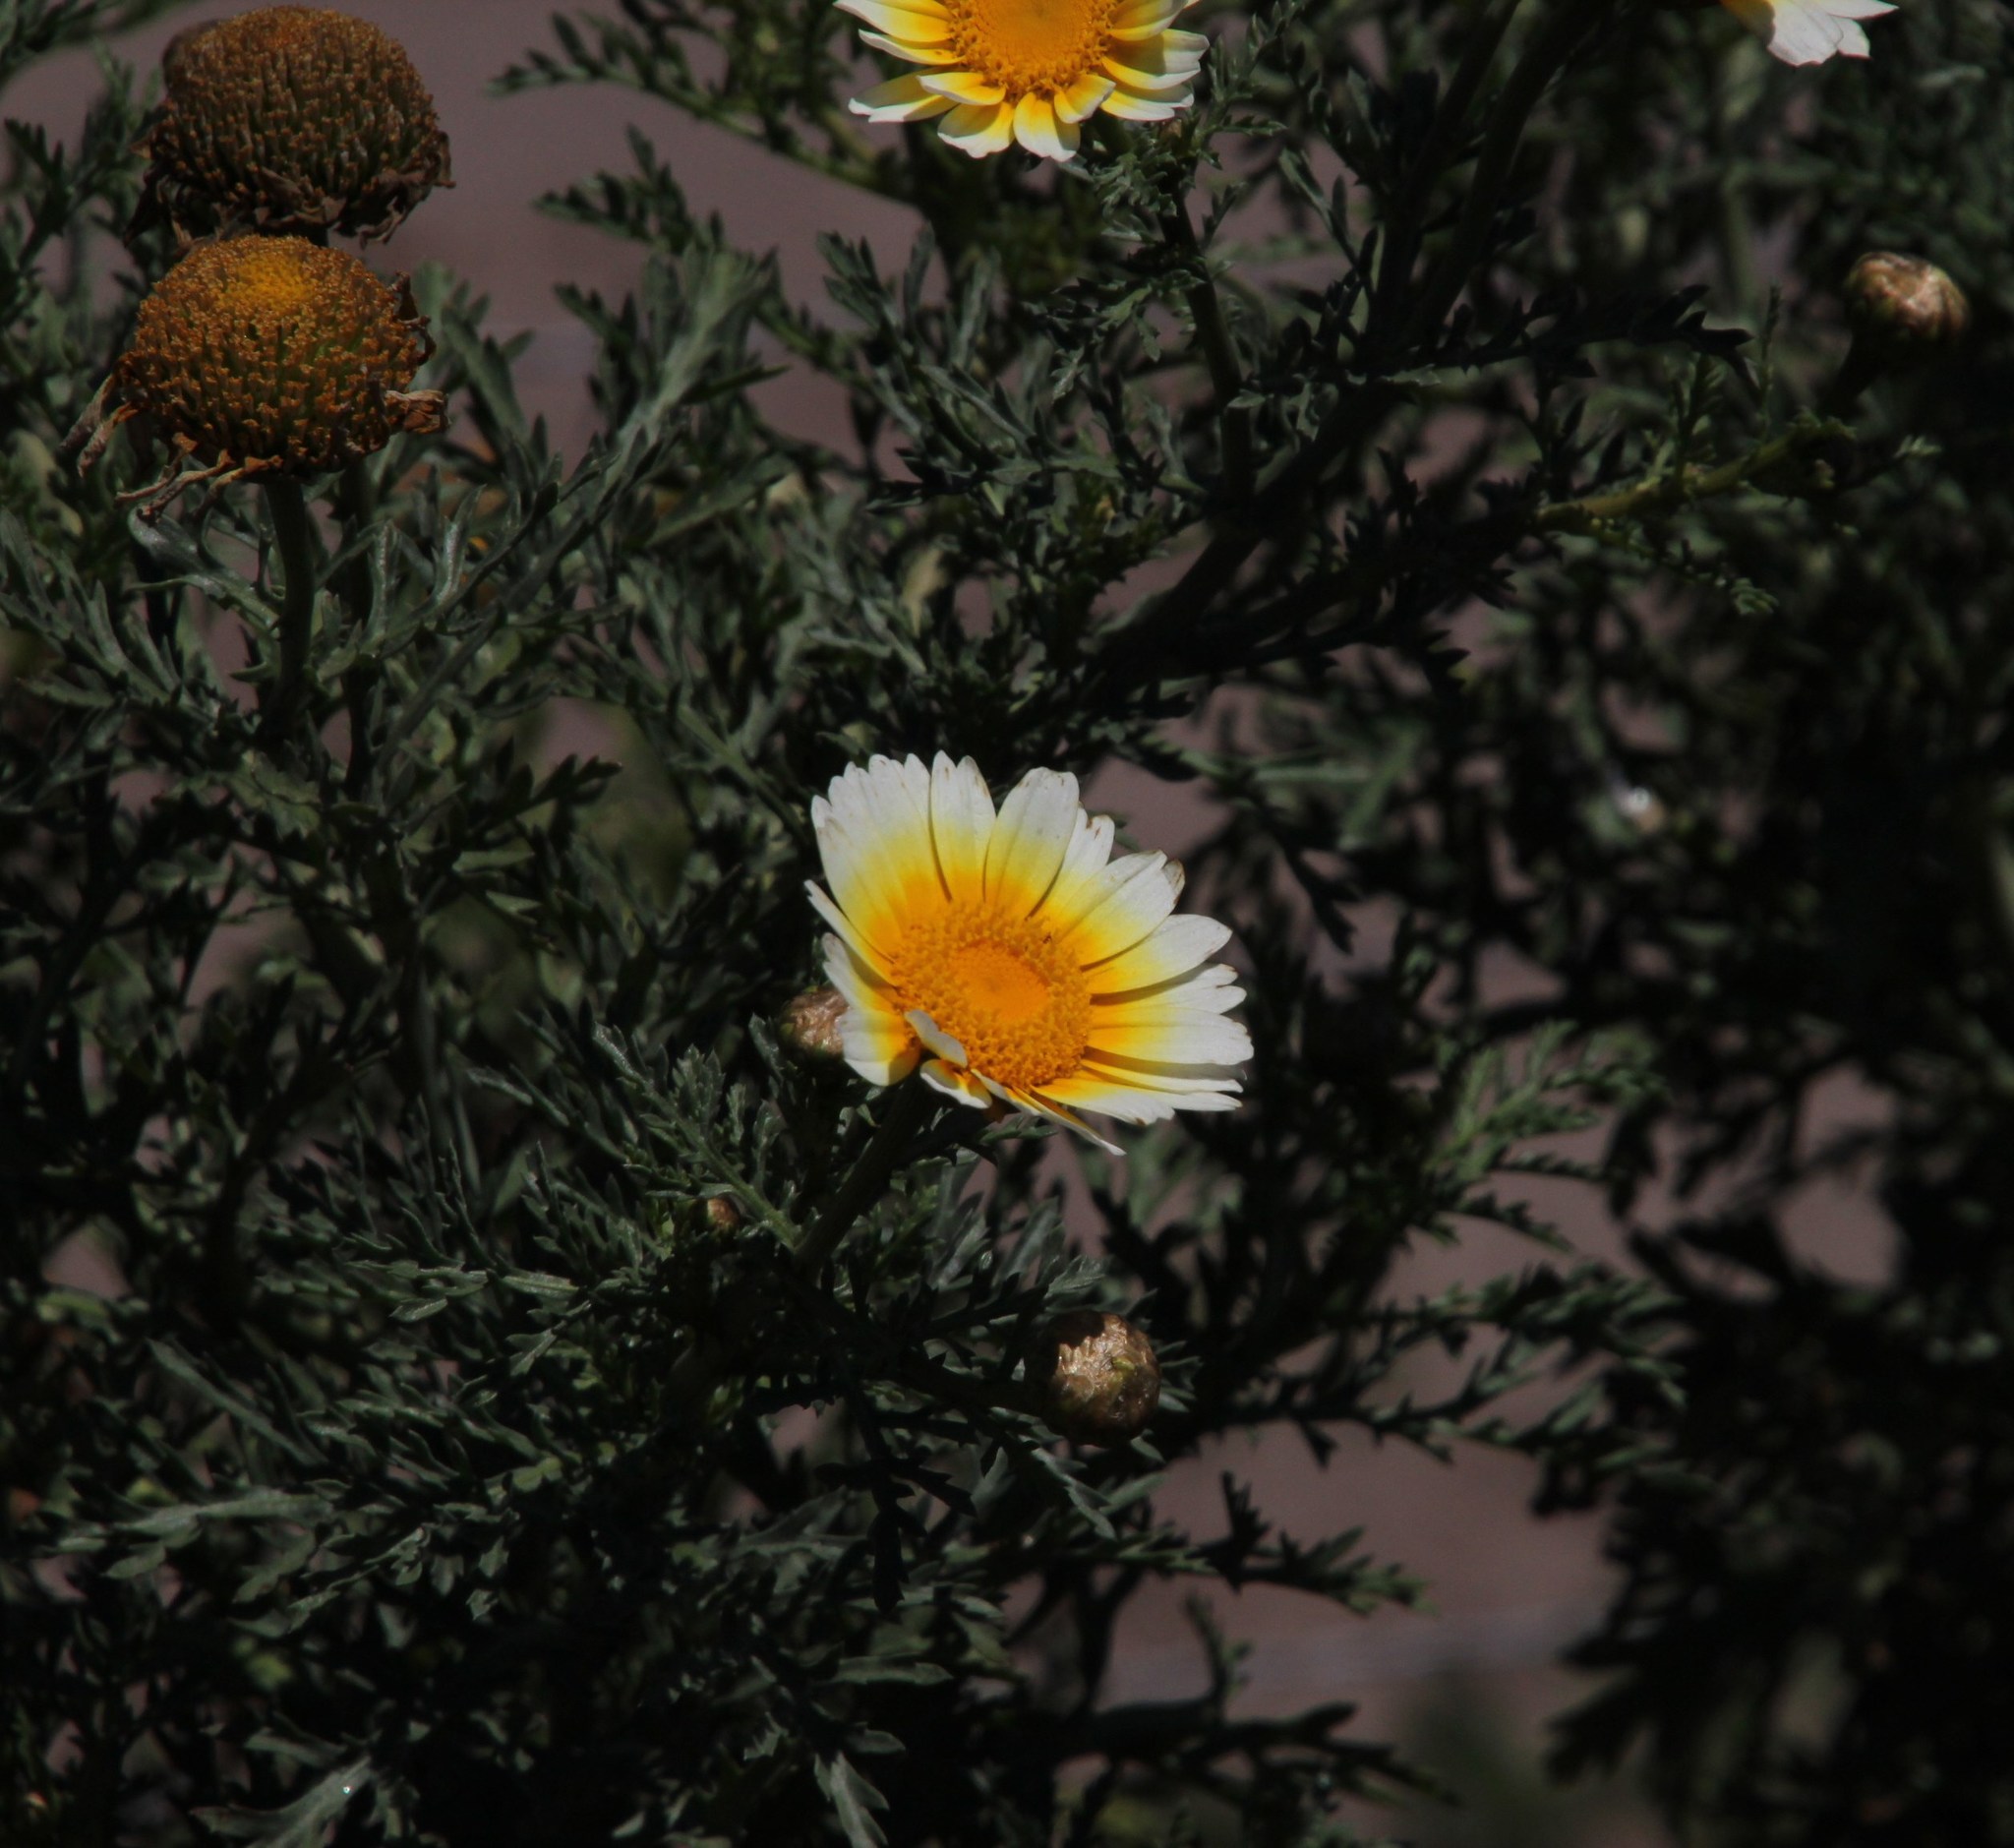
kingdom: Plantae
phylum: Tracheophyta
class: Magnoliopsida
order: Asterales
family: Asteraceae
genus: Glebionis
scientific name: Glebionis coronaria
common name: Crowndaisy
